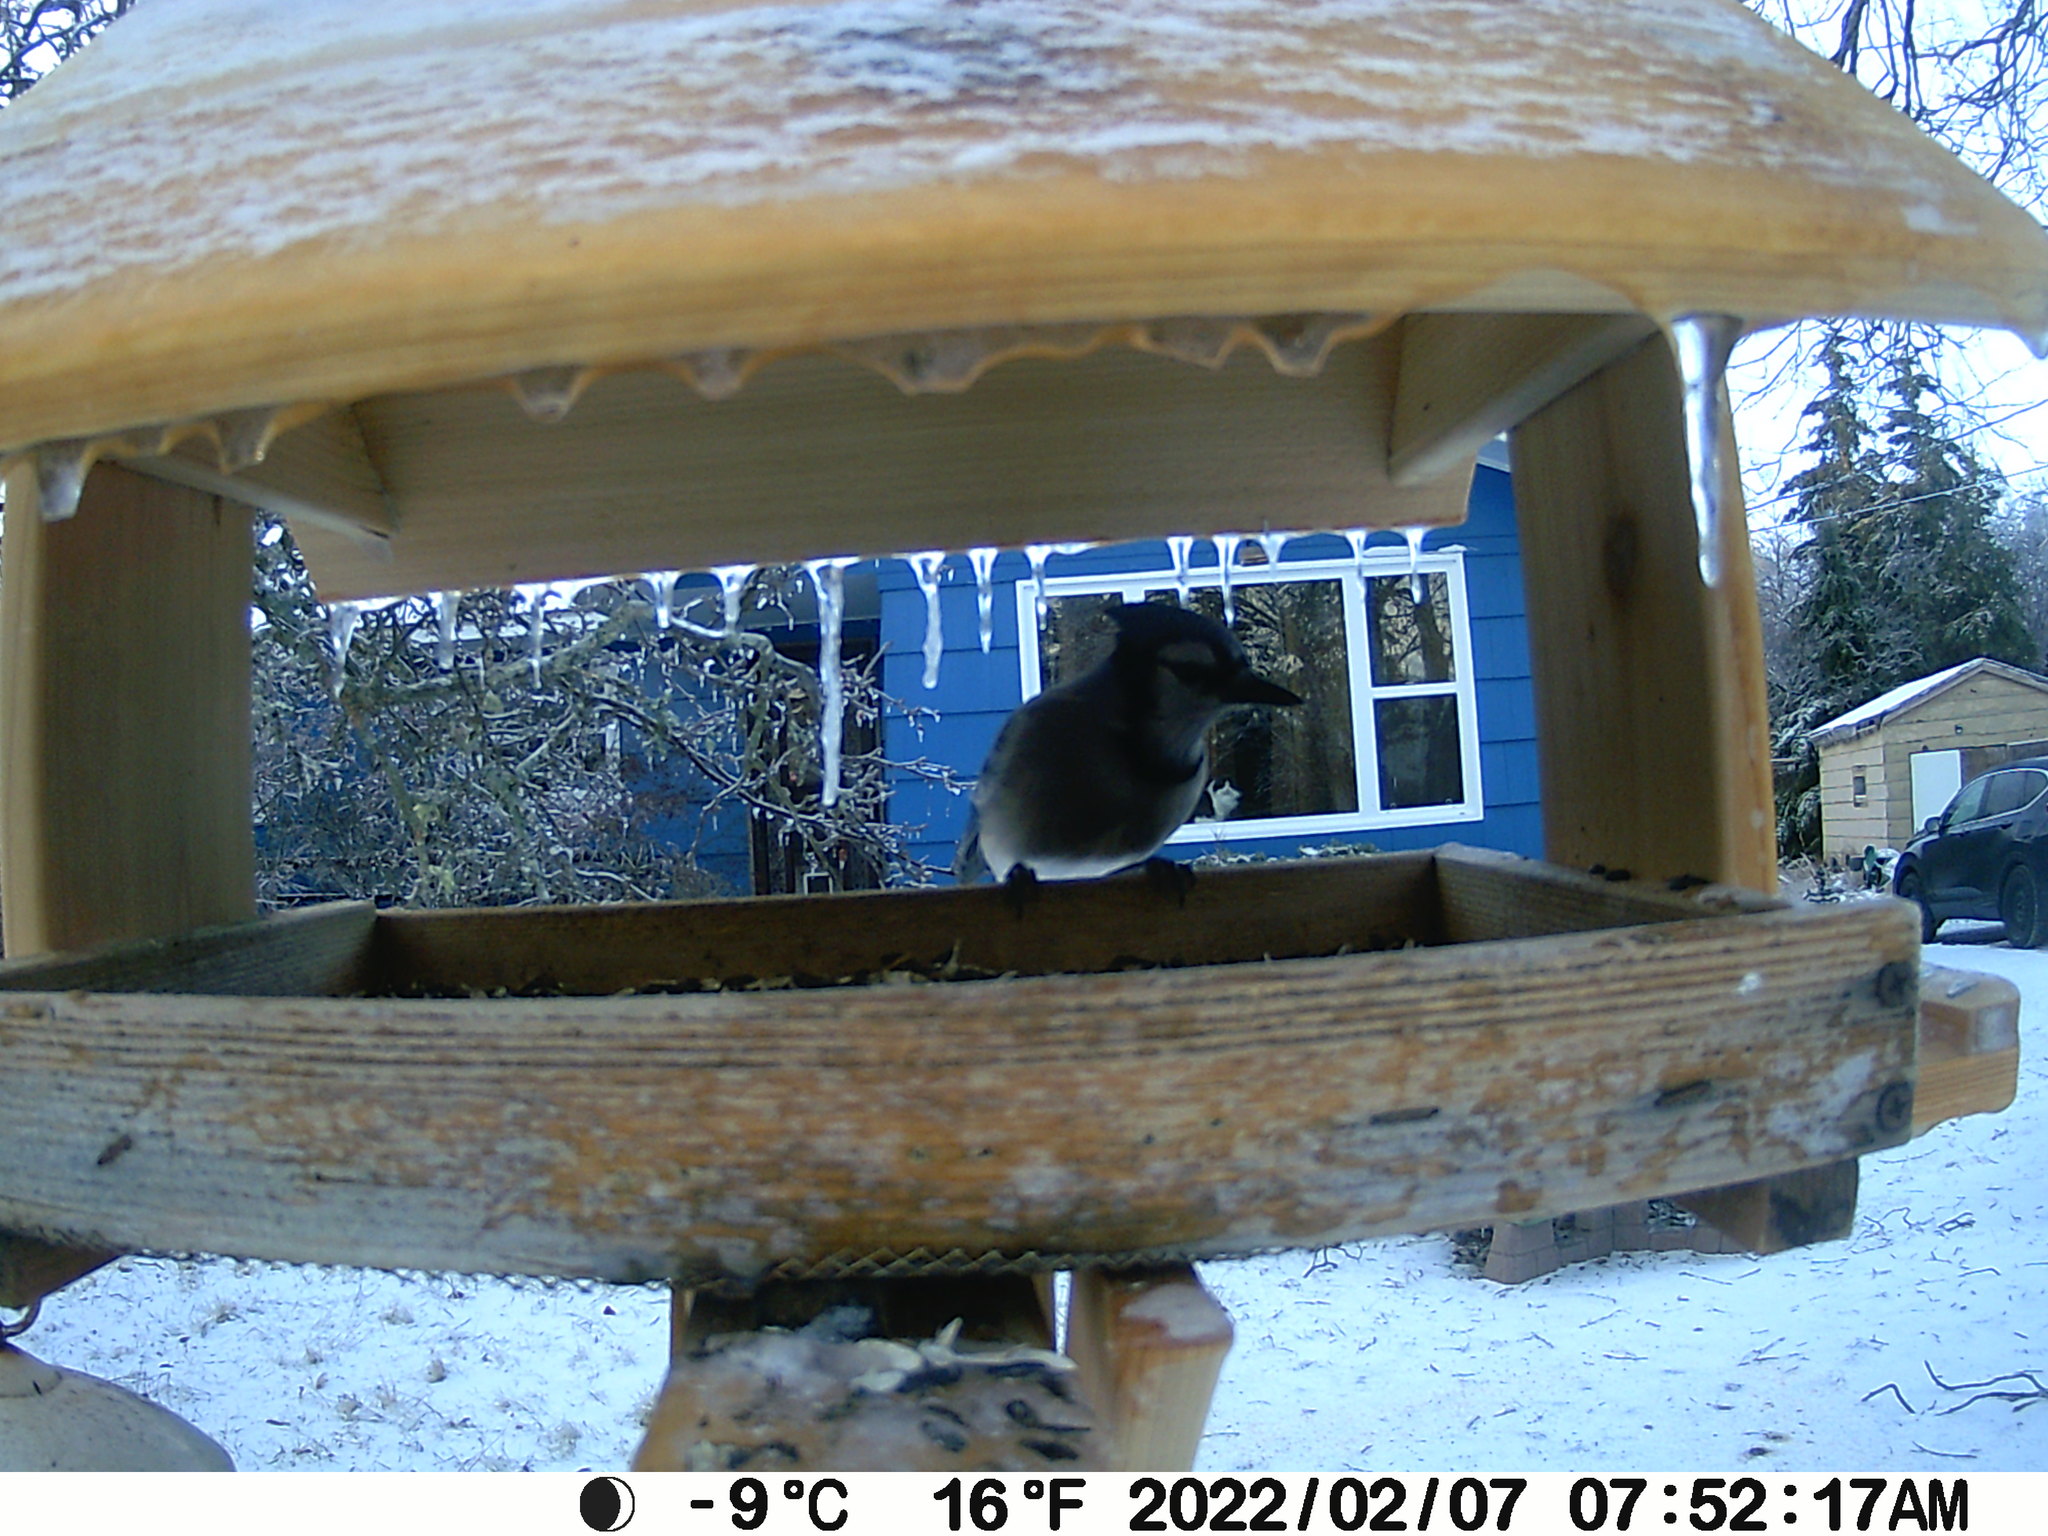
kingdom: Animalia
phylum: Chordata
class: Aves
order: Passeriformes
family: Corvidae
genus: Cyanocitta
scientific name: Cyanocitta cristata
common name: Blue jay
